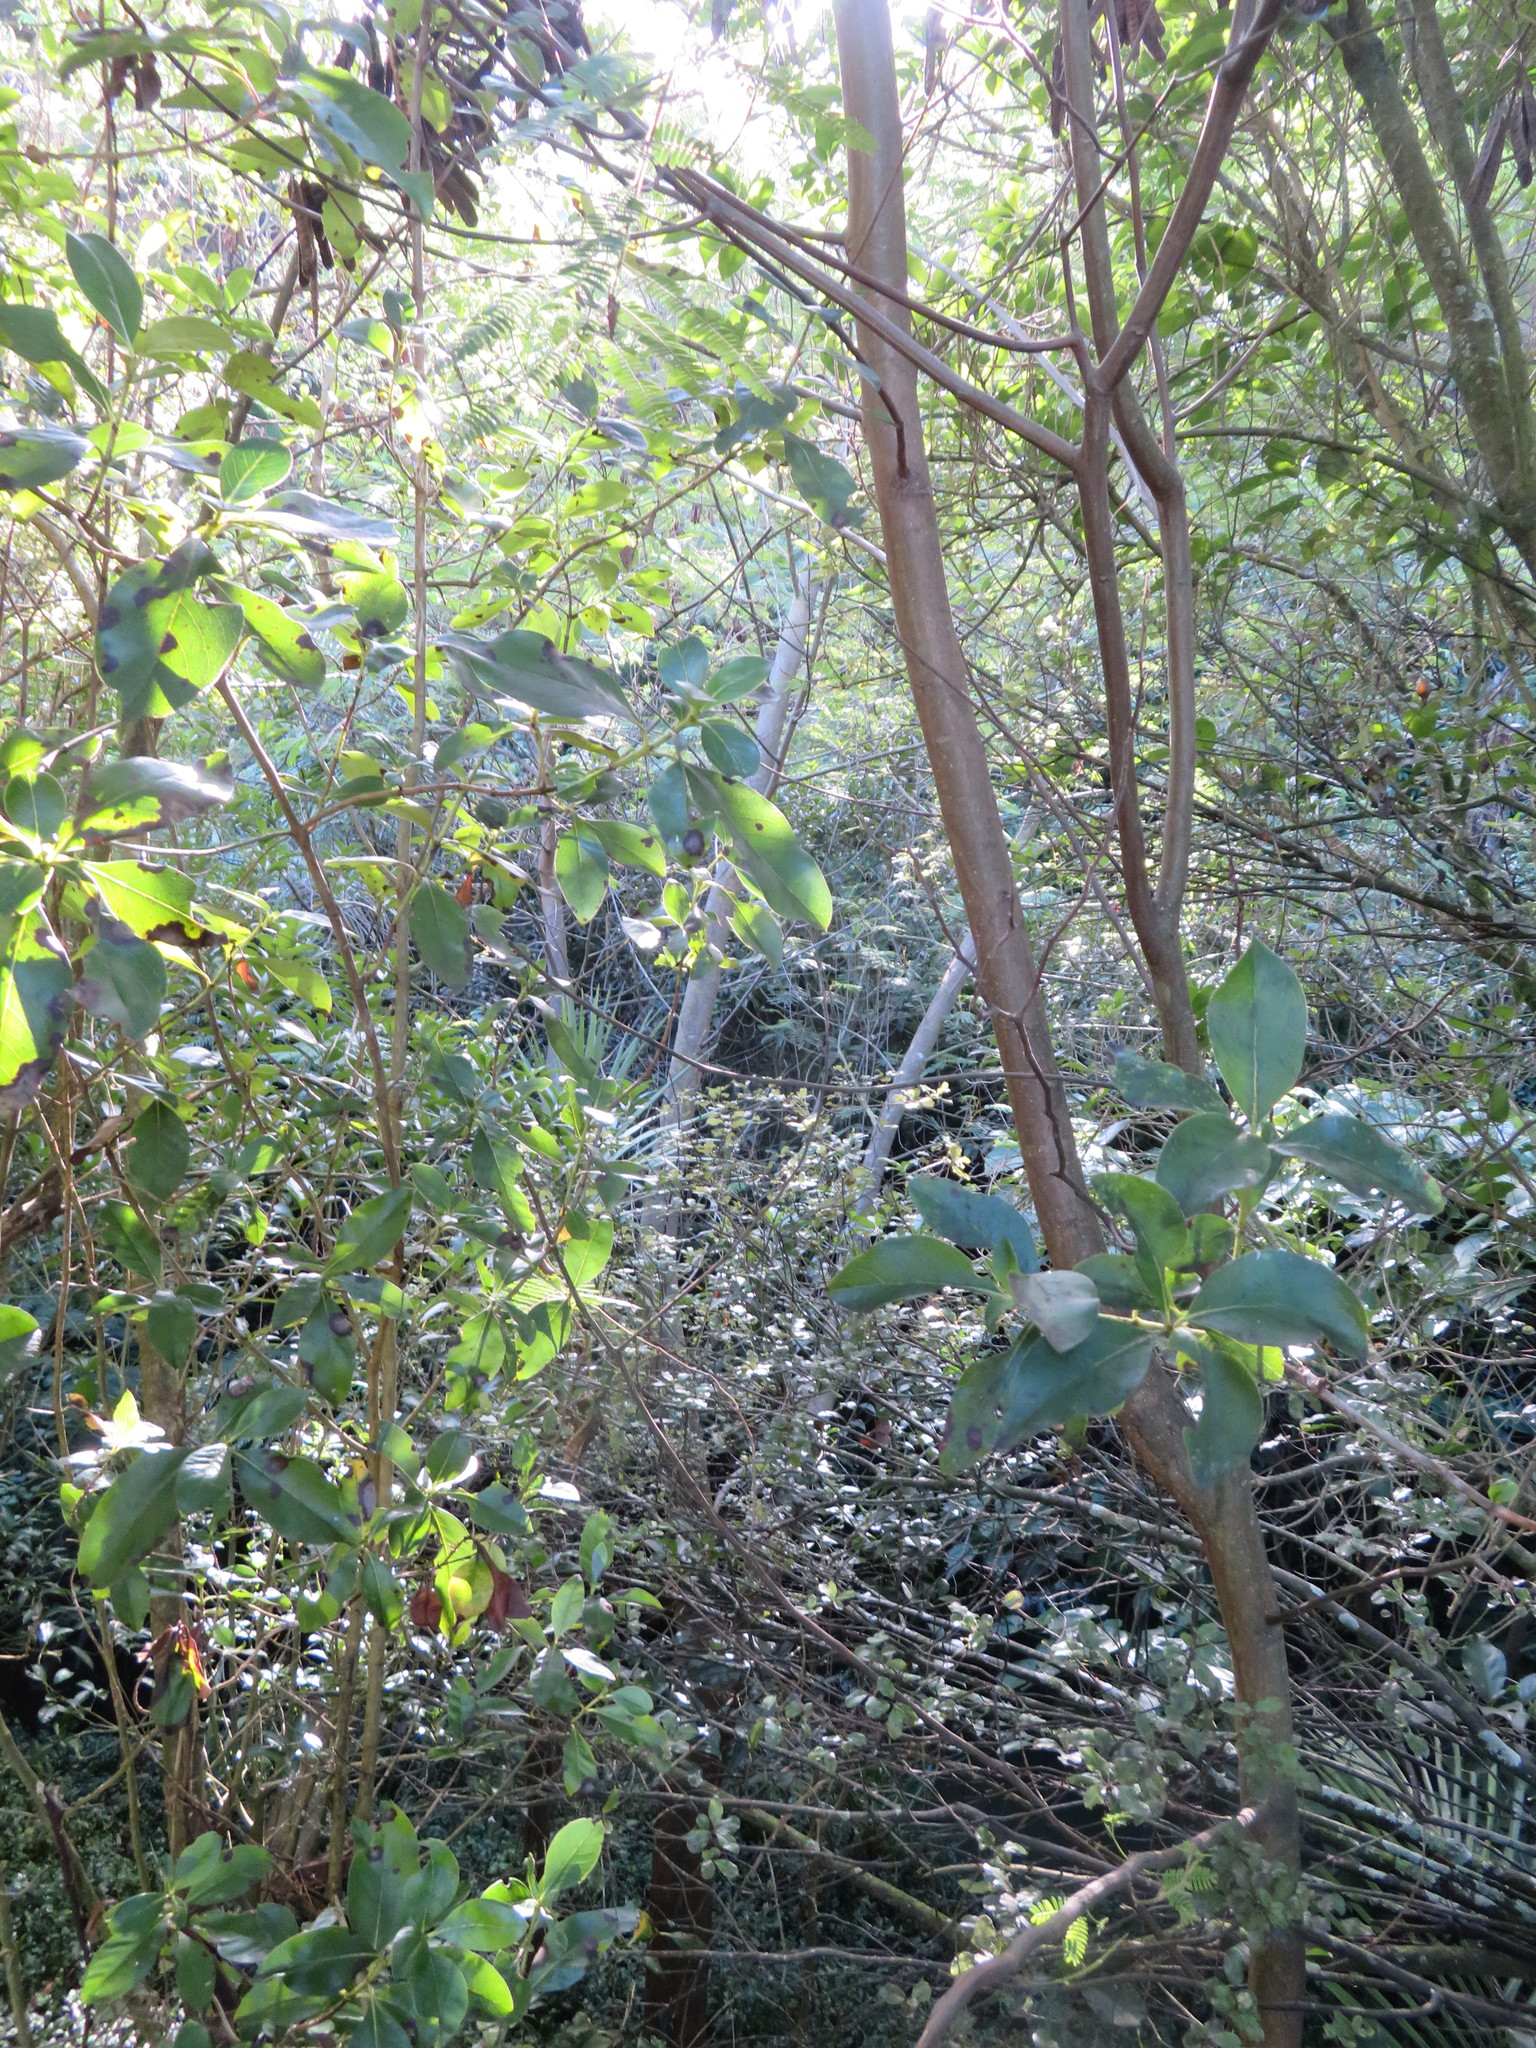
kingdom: Plantae
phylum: Tracheophyta
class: Magnoliopsida
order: Fabales
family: Fabaceae
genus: Paraserianthes
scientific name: Paraserianthes lophantha
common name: Plume albizia
